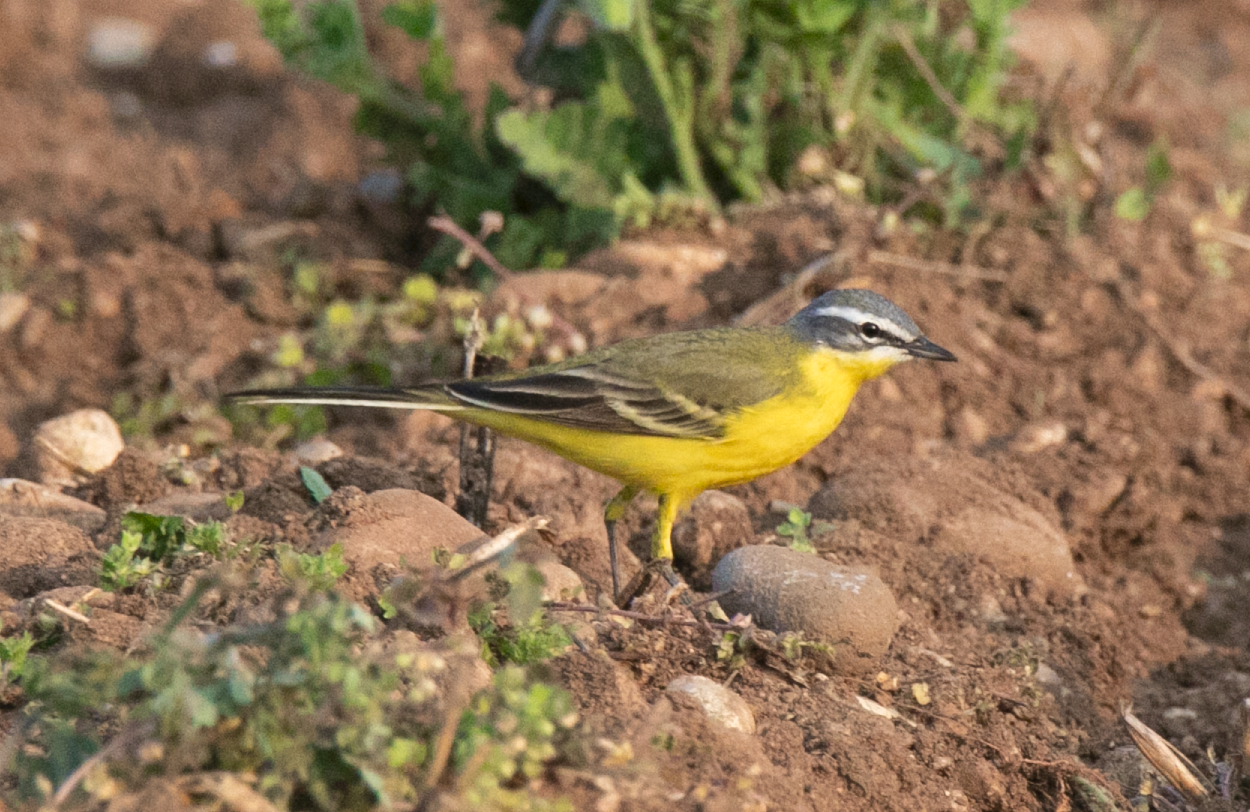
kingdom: Animalia
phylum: Chordata
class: Aves
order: Passeriformes
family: Motacillidae
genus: Motacilla
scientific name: Motacilla flava
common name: Western yellow wagtail
